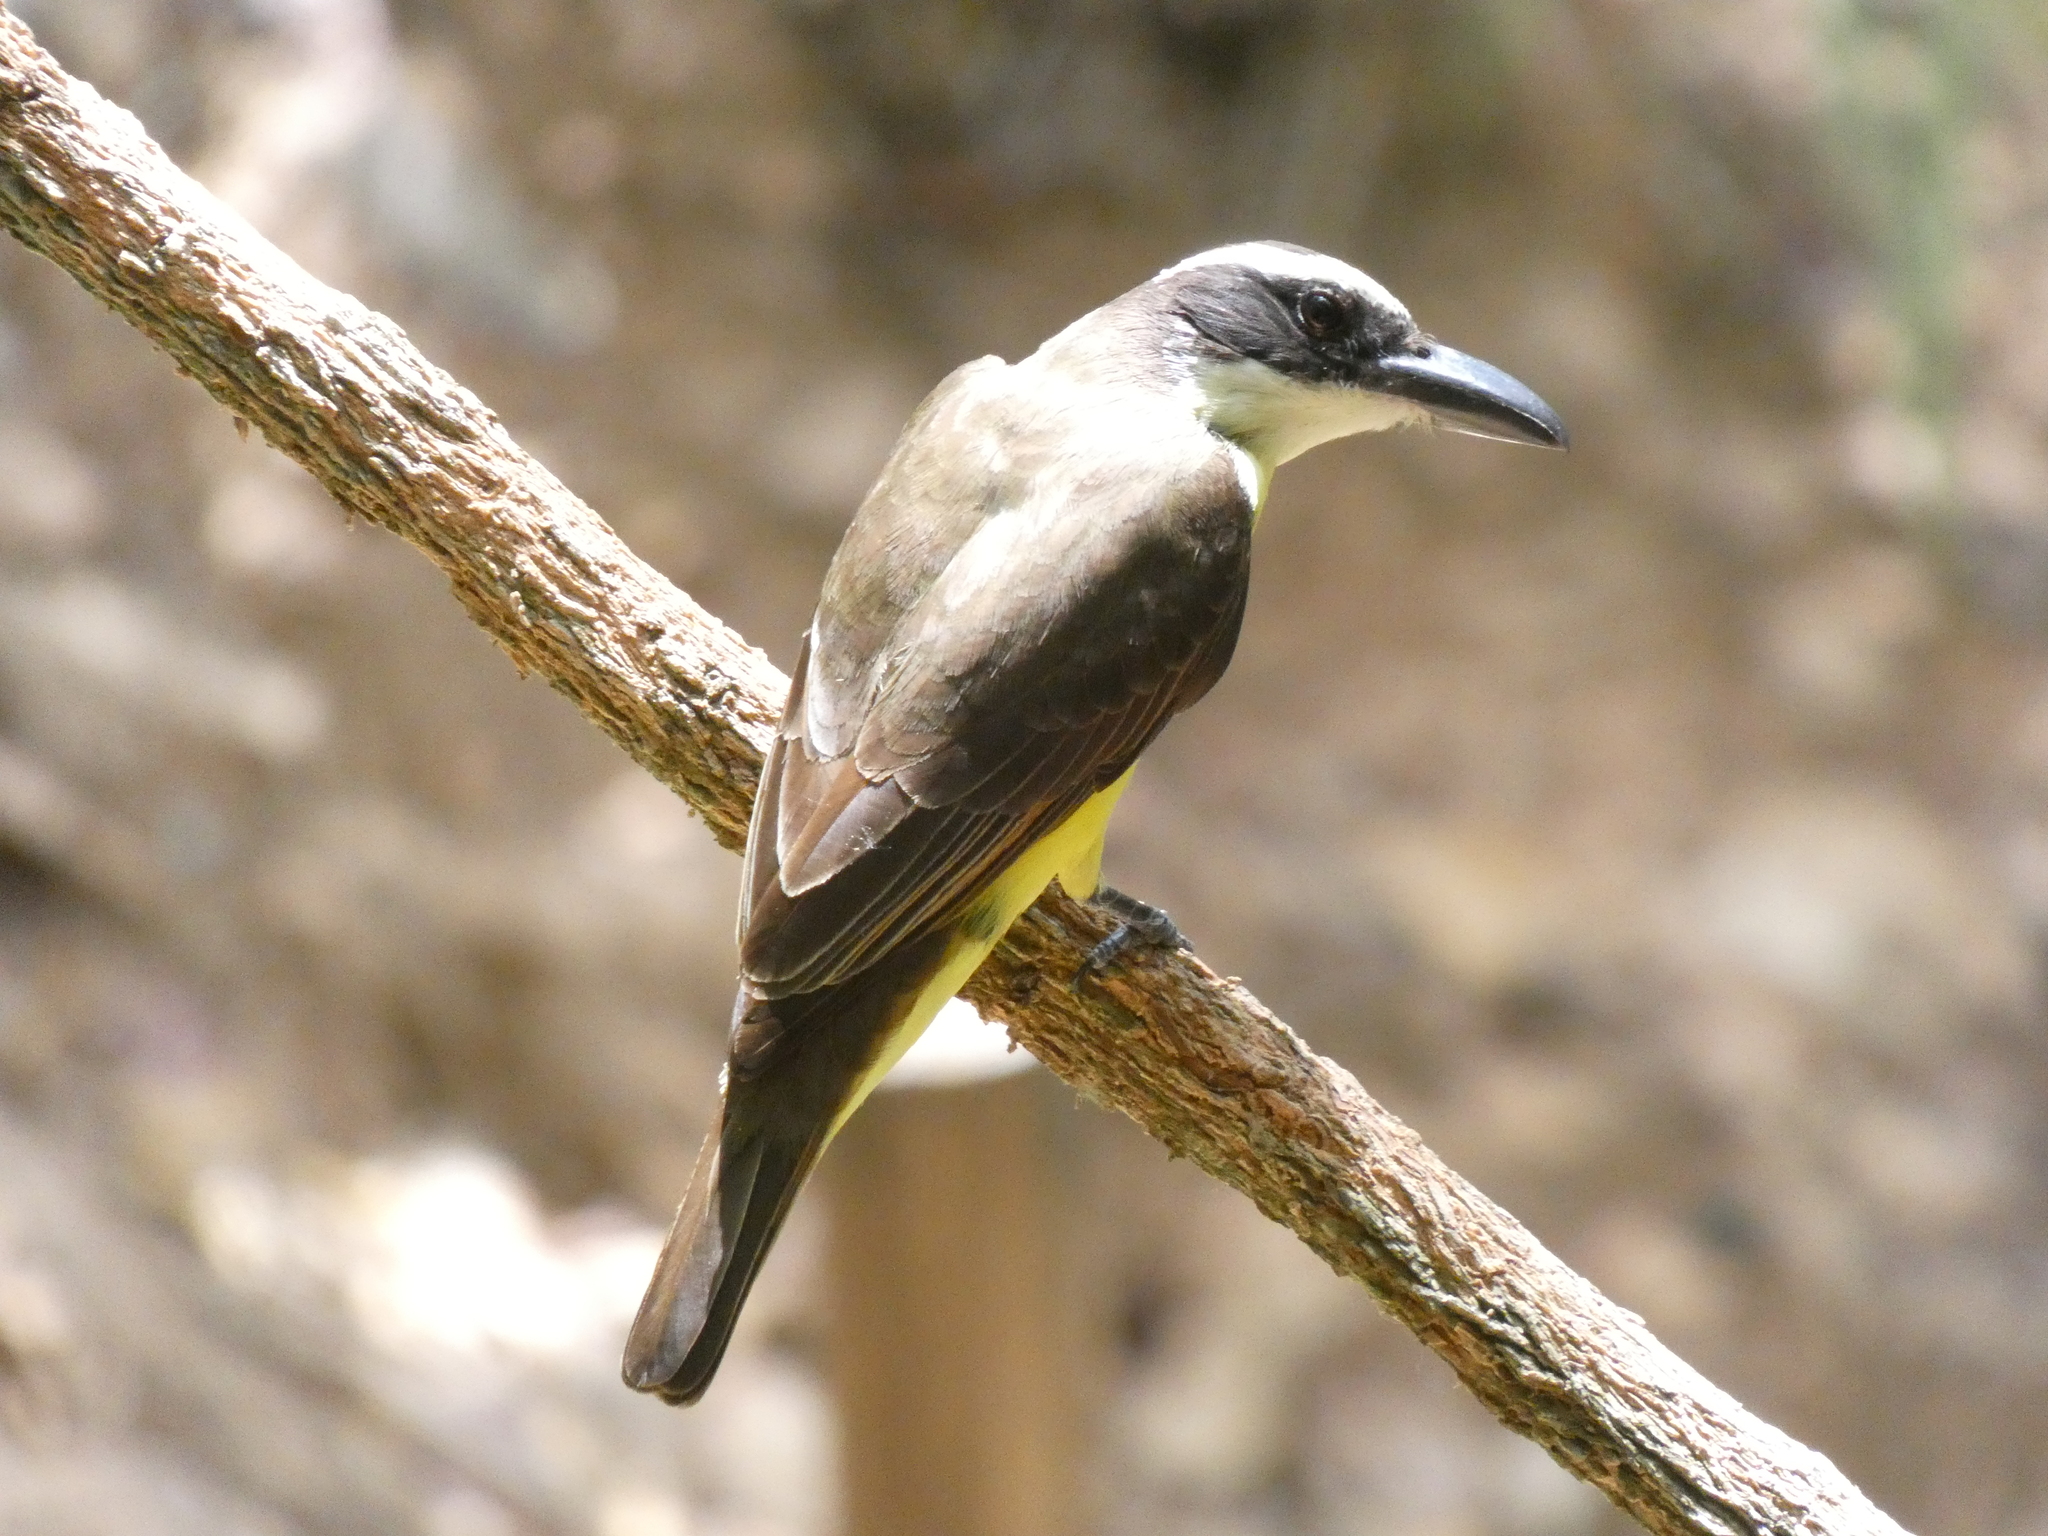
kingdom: Animalia
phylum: Chordata
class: Aves
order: Passeriformes
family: Tyrannidae
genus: Megarynchus
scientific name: Megarynchus pitangua
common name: Boat-billed flycatcher
